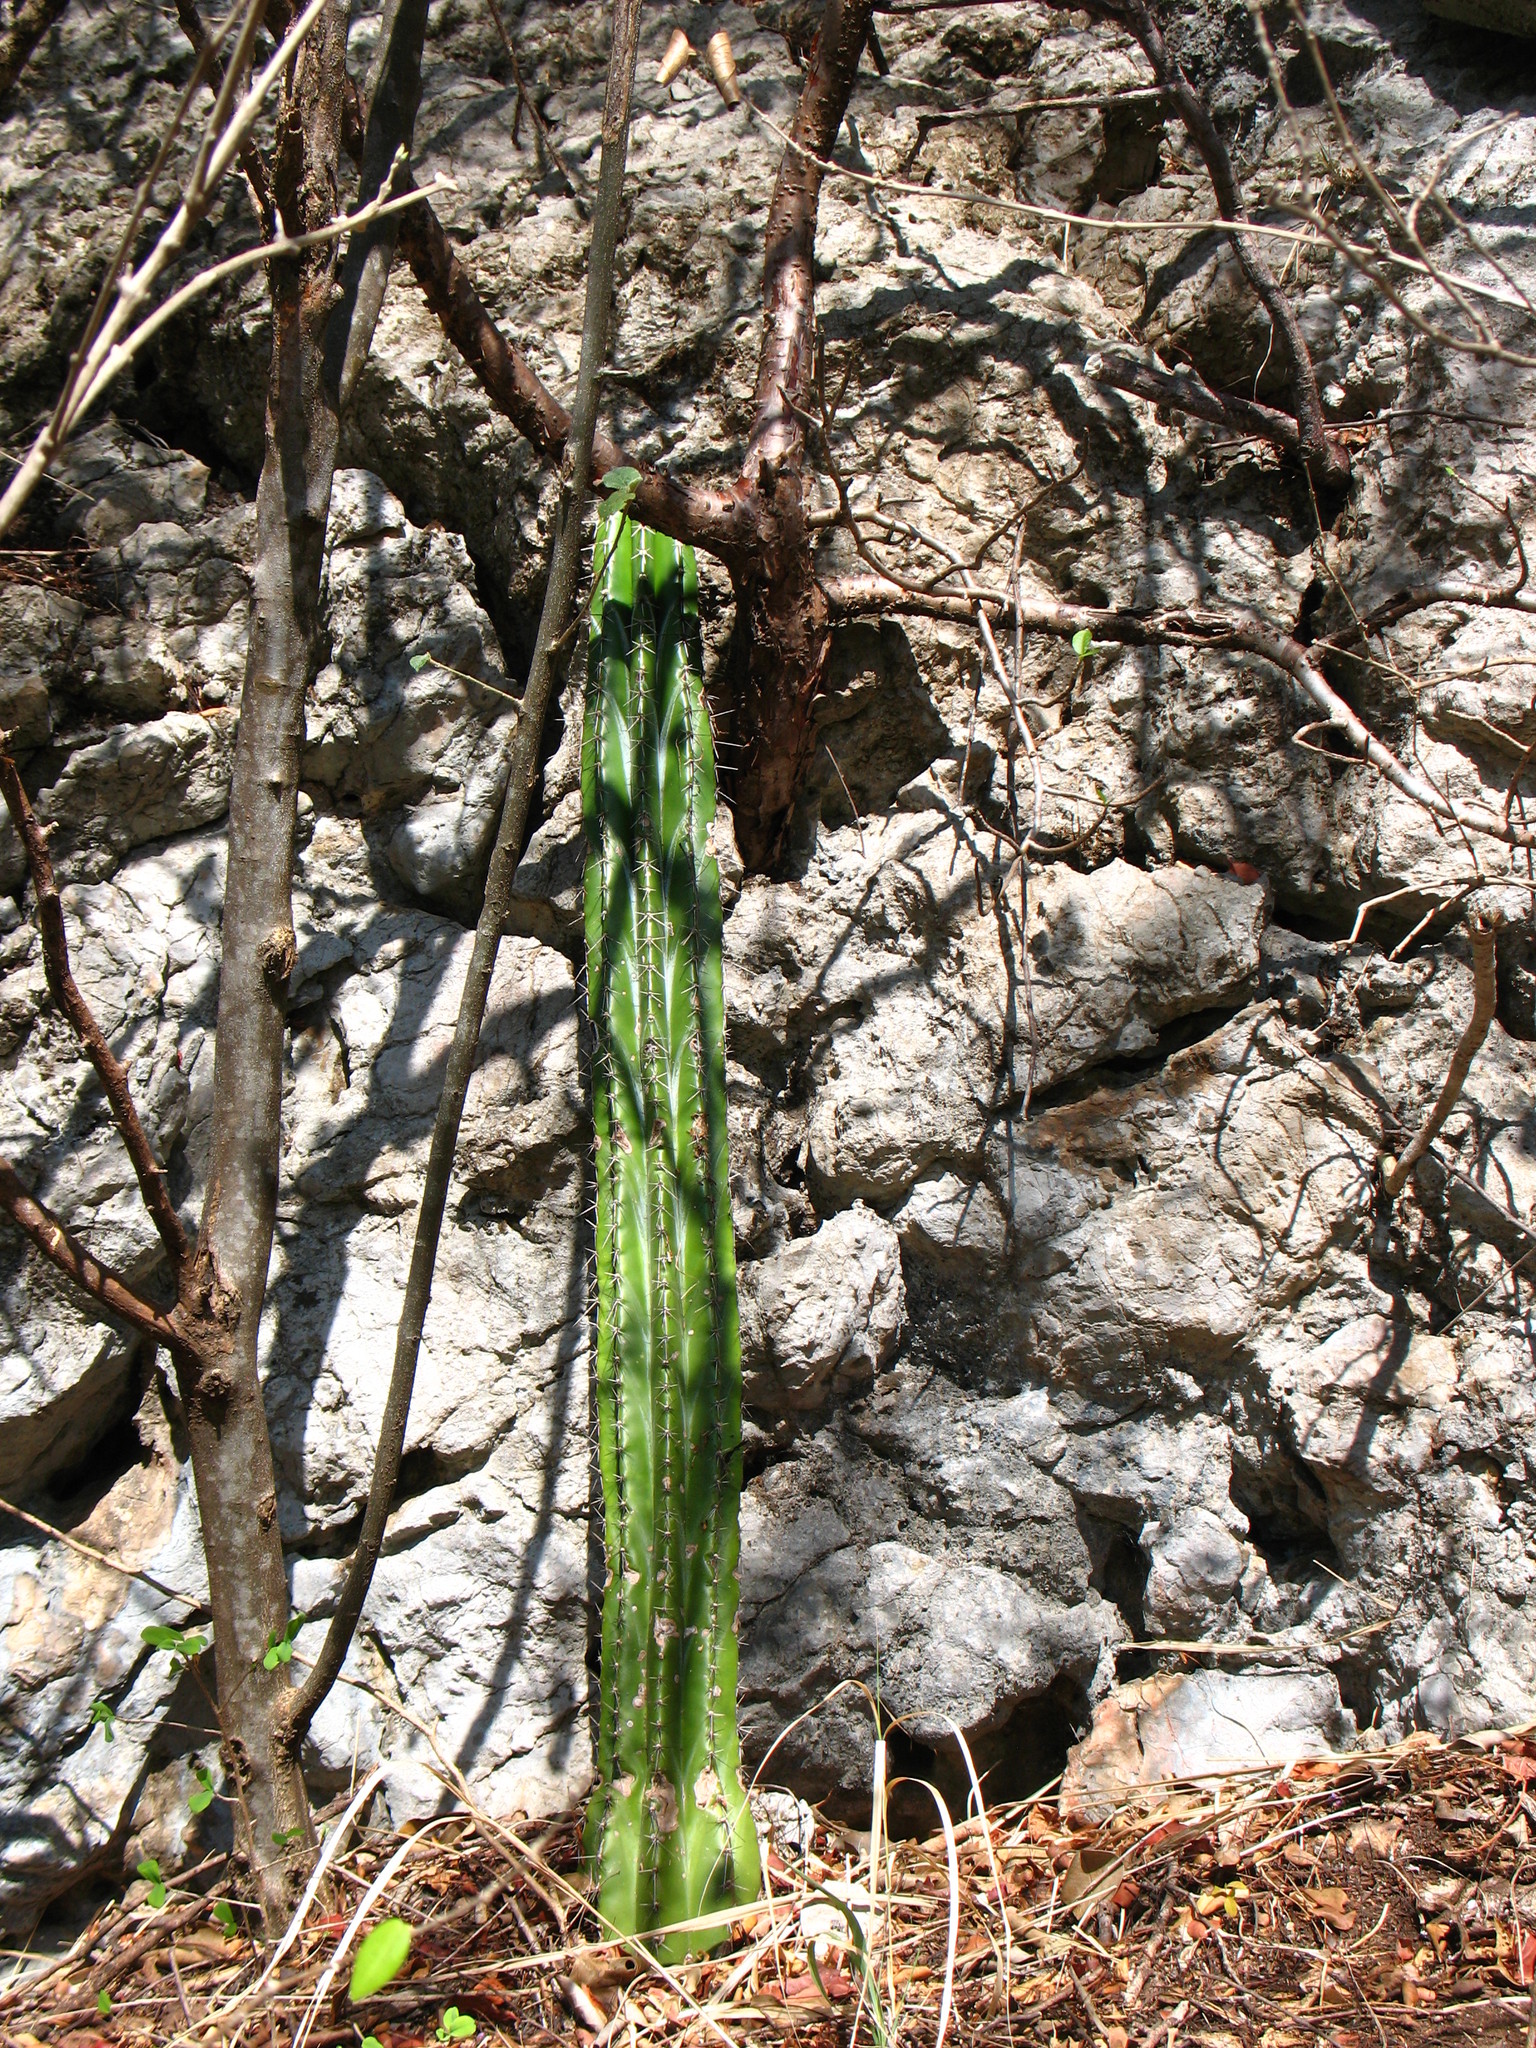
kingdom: Plantae
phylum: Tracheophyta
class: Magnoliopsida
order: Caryophyllales
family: Cactaceae
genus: Stenocereus
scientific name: Stenocereus aragonii
